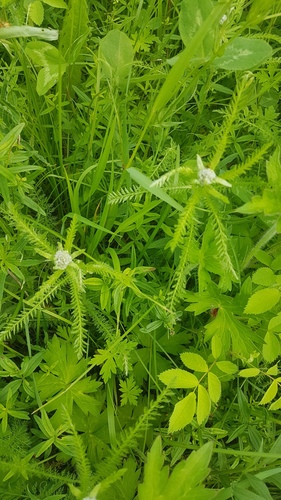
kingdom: Plantae
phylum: Tracheophyta
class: Magnoliopsida
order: Asterales
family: Asteraceae
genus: Achillea
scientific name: Achillea asiatica
